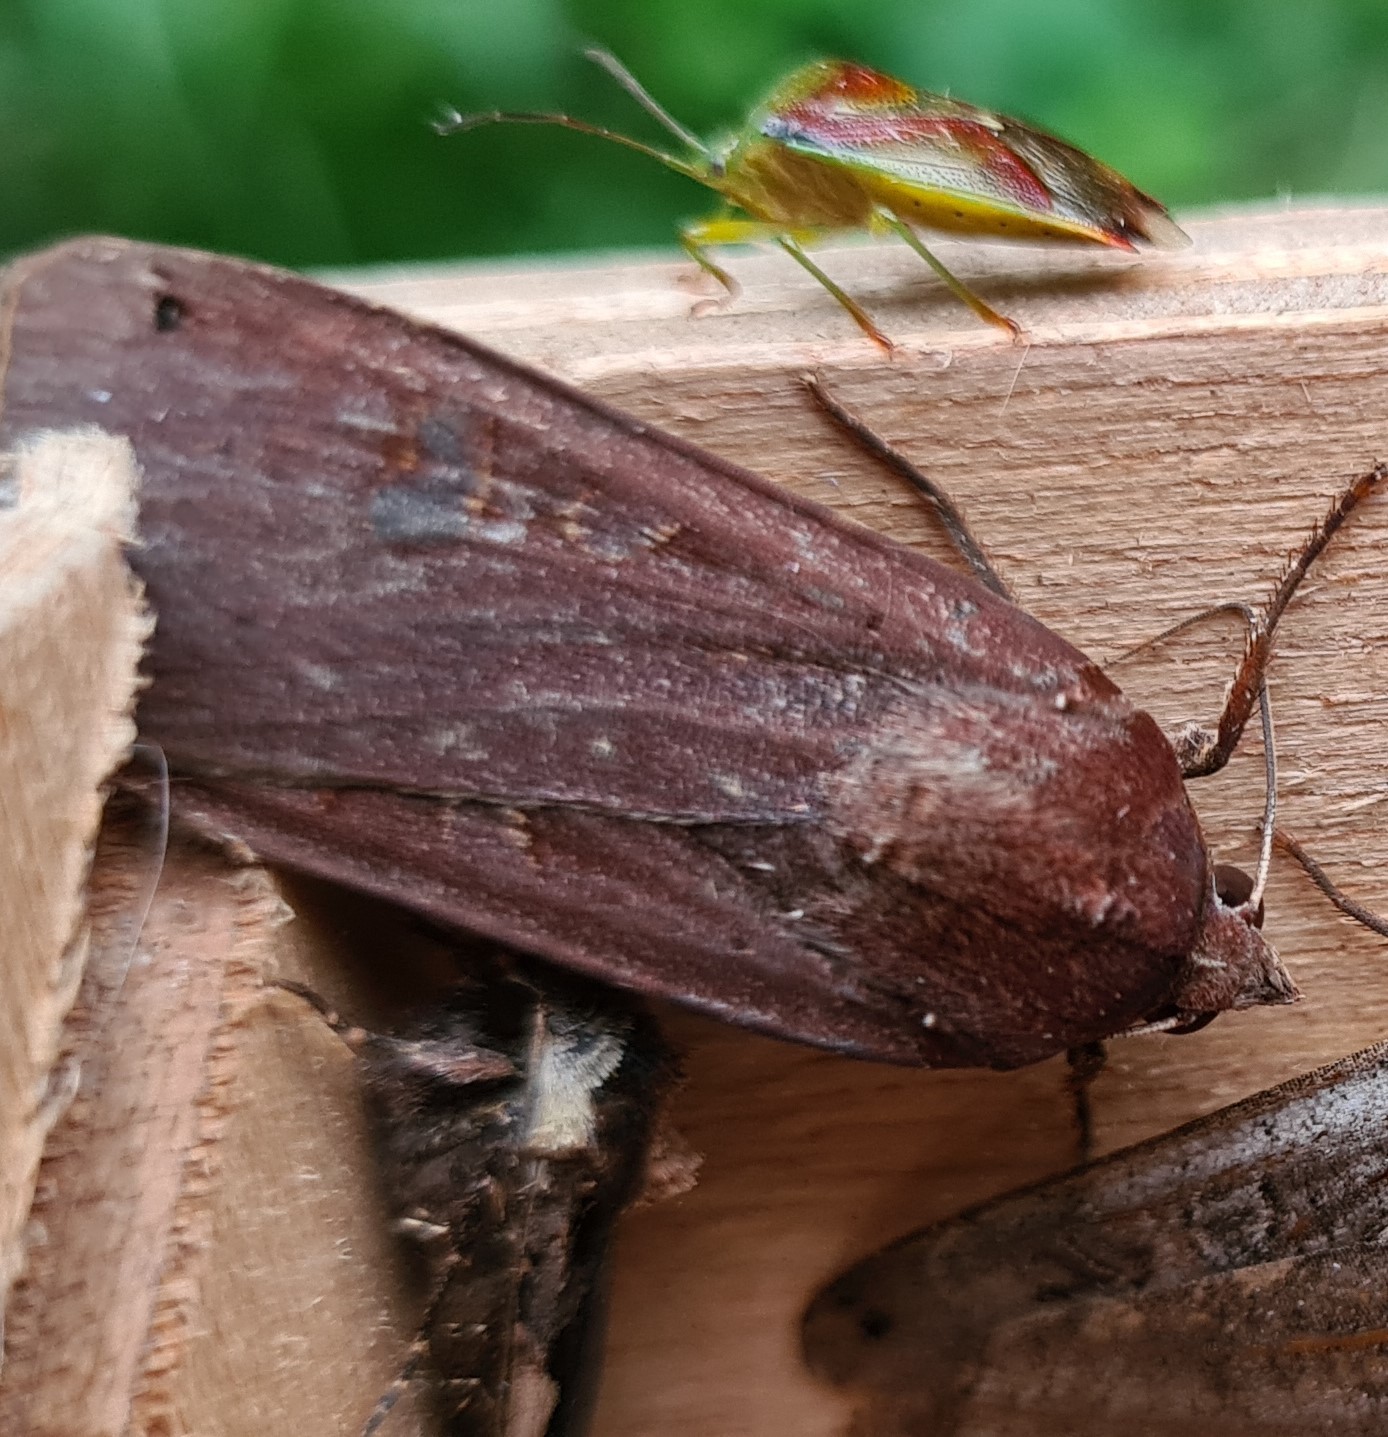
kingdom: Animalia
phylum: Arthropoda
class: Insecta
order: Lepidoptera
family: Noctuidae
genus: Noctua
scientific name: Noctua pronuba
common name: Large yellow underwing
